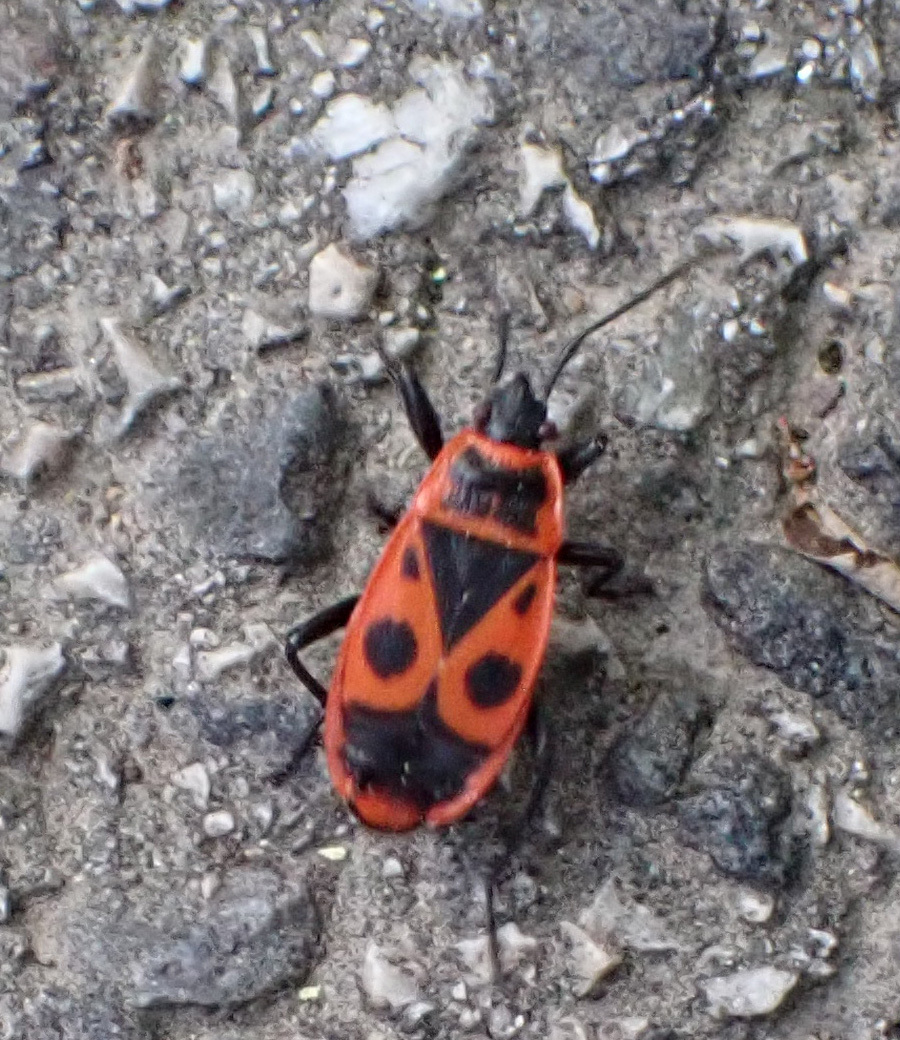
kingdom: Animalia
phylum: Arthropoda
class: Insecta
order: Hemiptera
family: Pyrrhocoridae
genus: Pyrrhocoris
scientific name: Pyrrhocoris apterus
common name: Firebug
